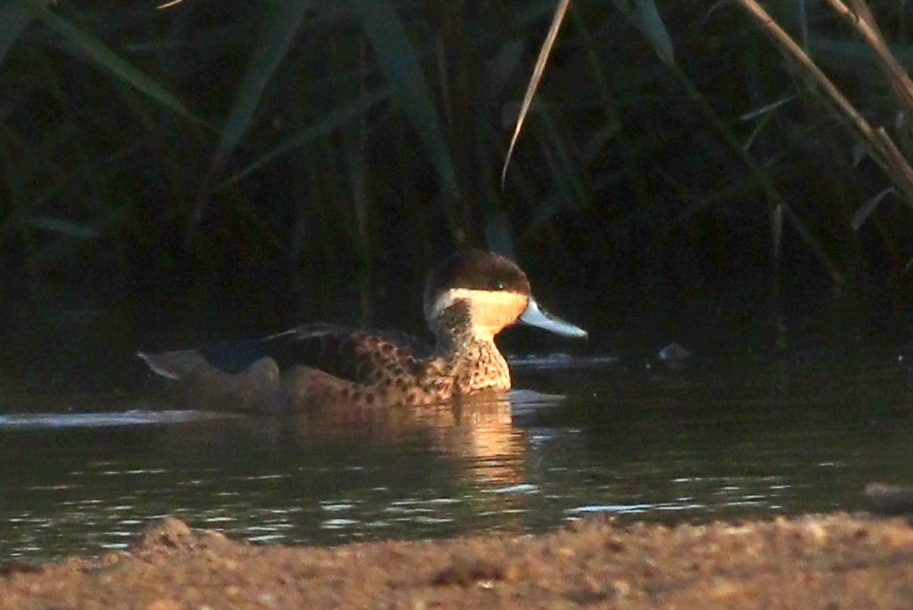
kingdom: Animalia
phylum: Chordata
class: Aves
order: Anseriformes
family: Anatidae
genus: Spatula
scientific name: Spatula hottentota
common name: Blue-billed teal
